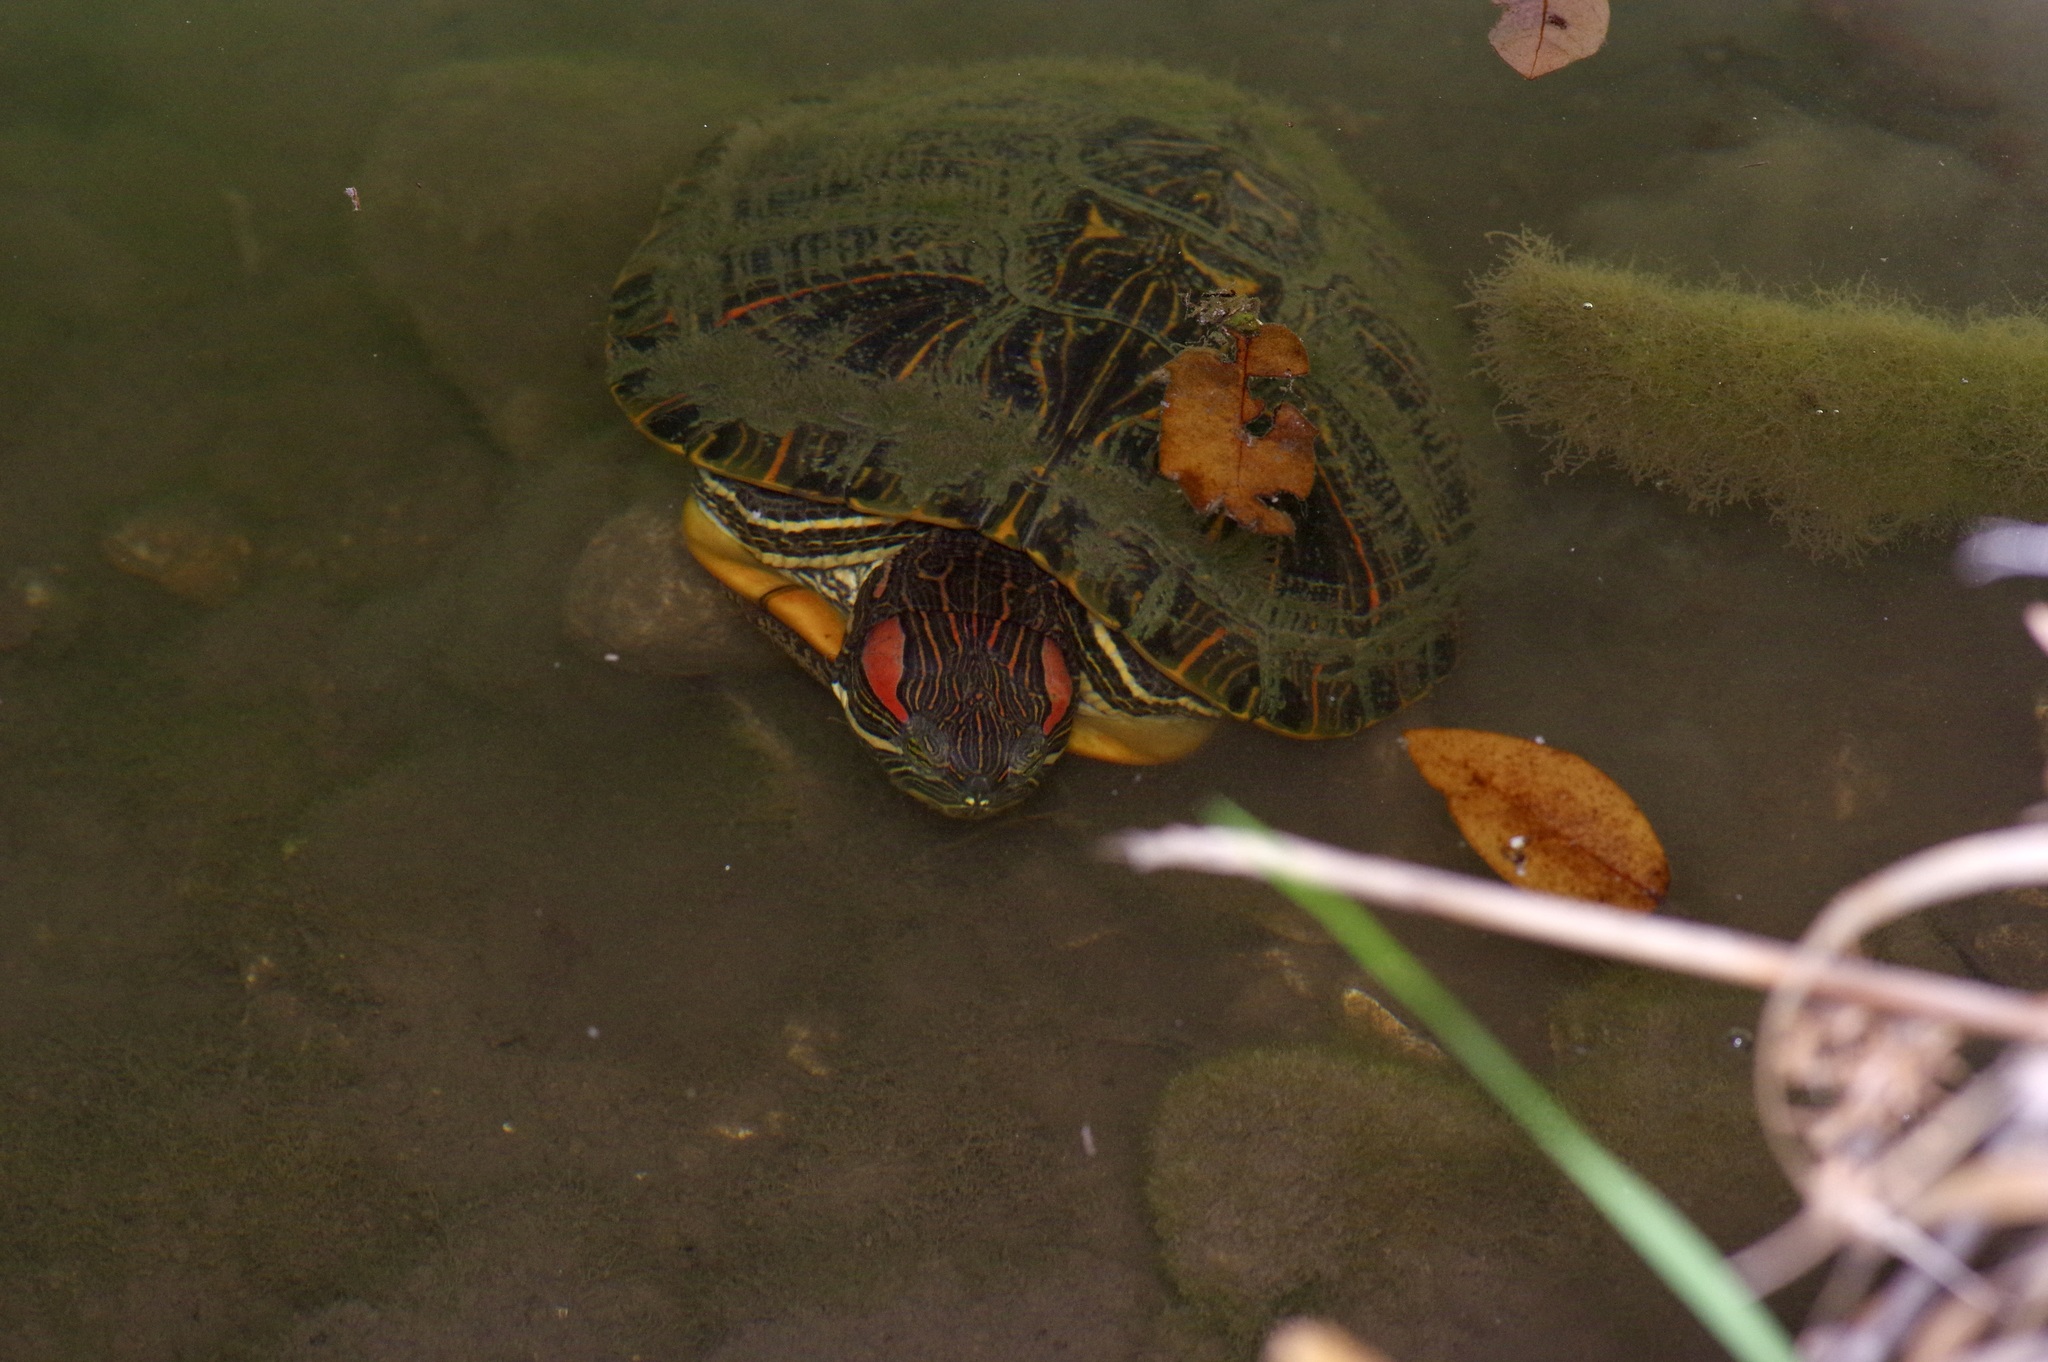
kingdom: Animalia
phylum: Chordata
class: Testudines
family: Emydidae
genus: Trachemys
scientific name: Trachemys scripta
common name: Slider
